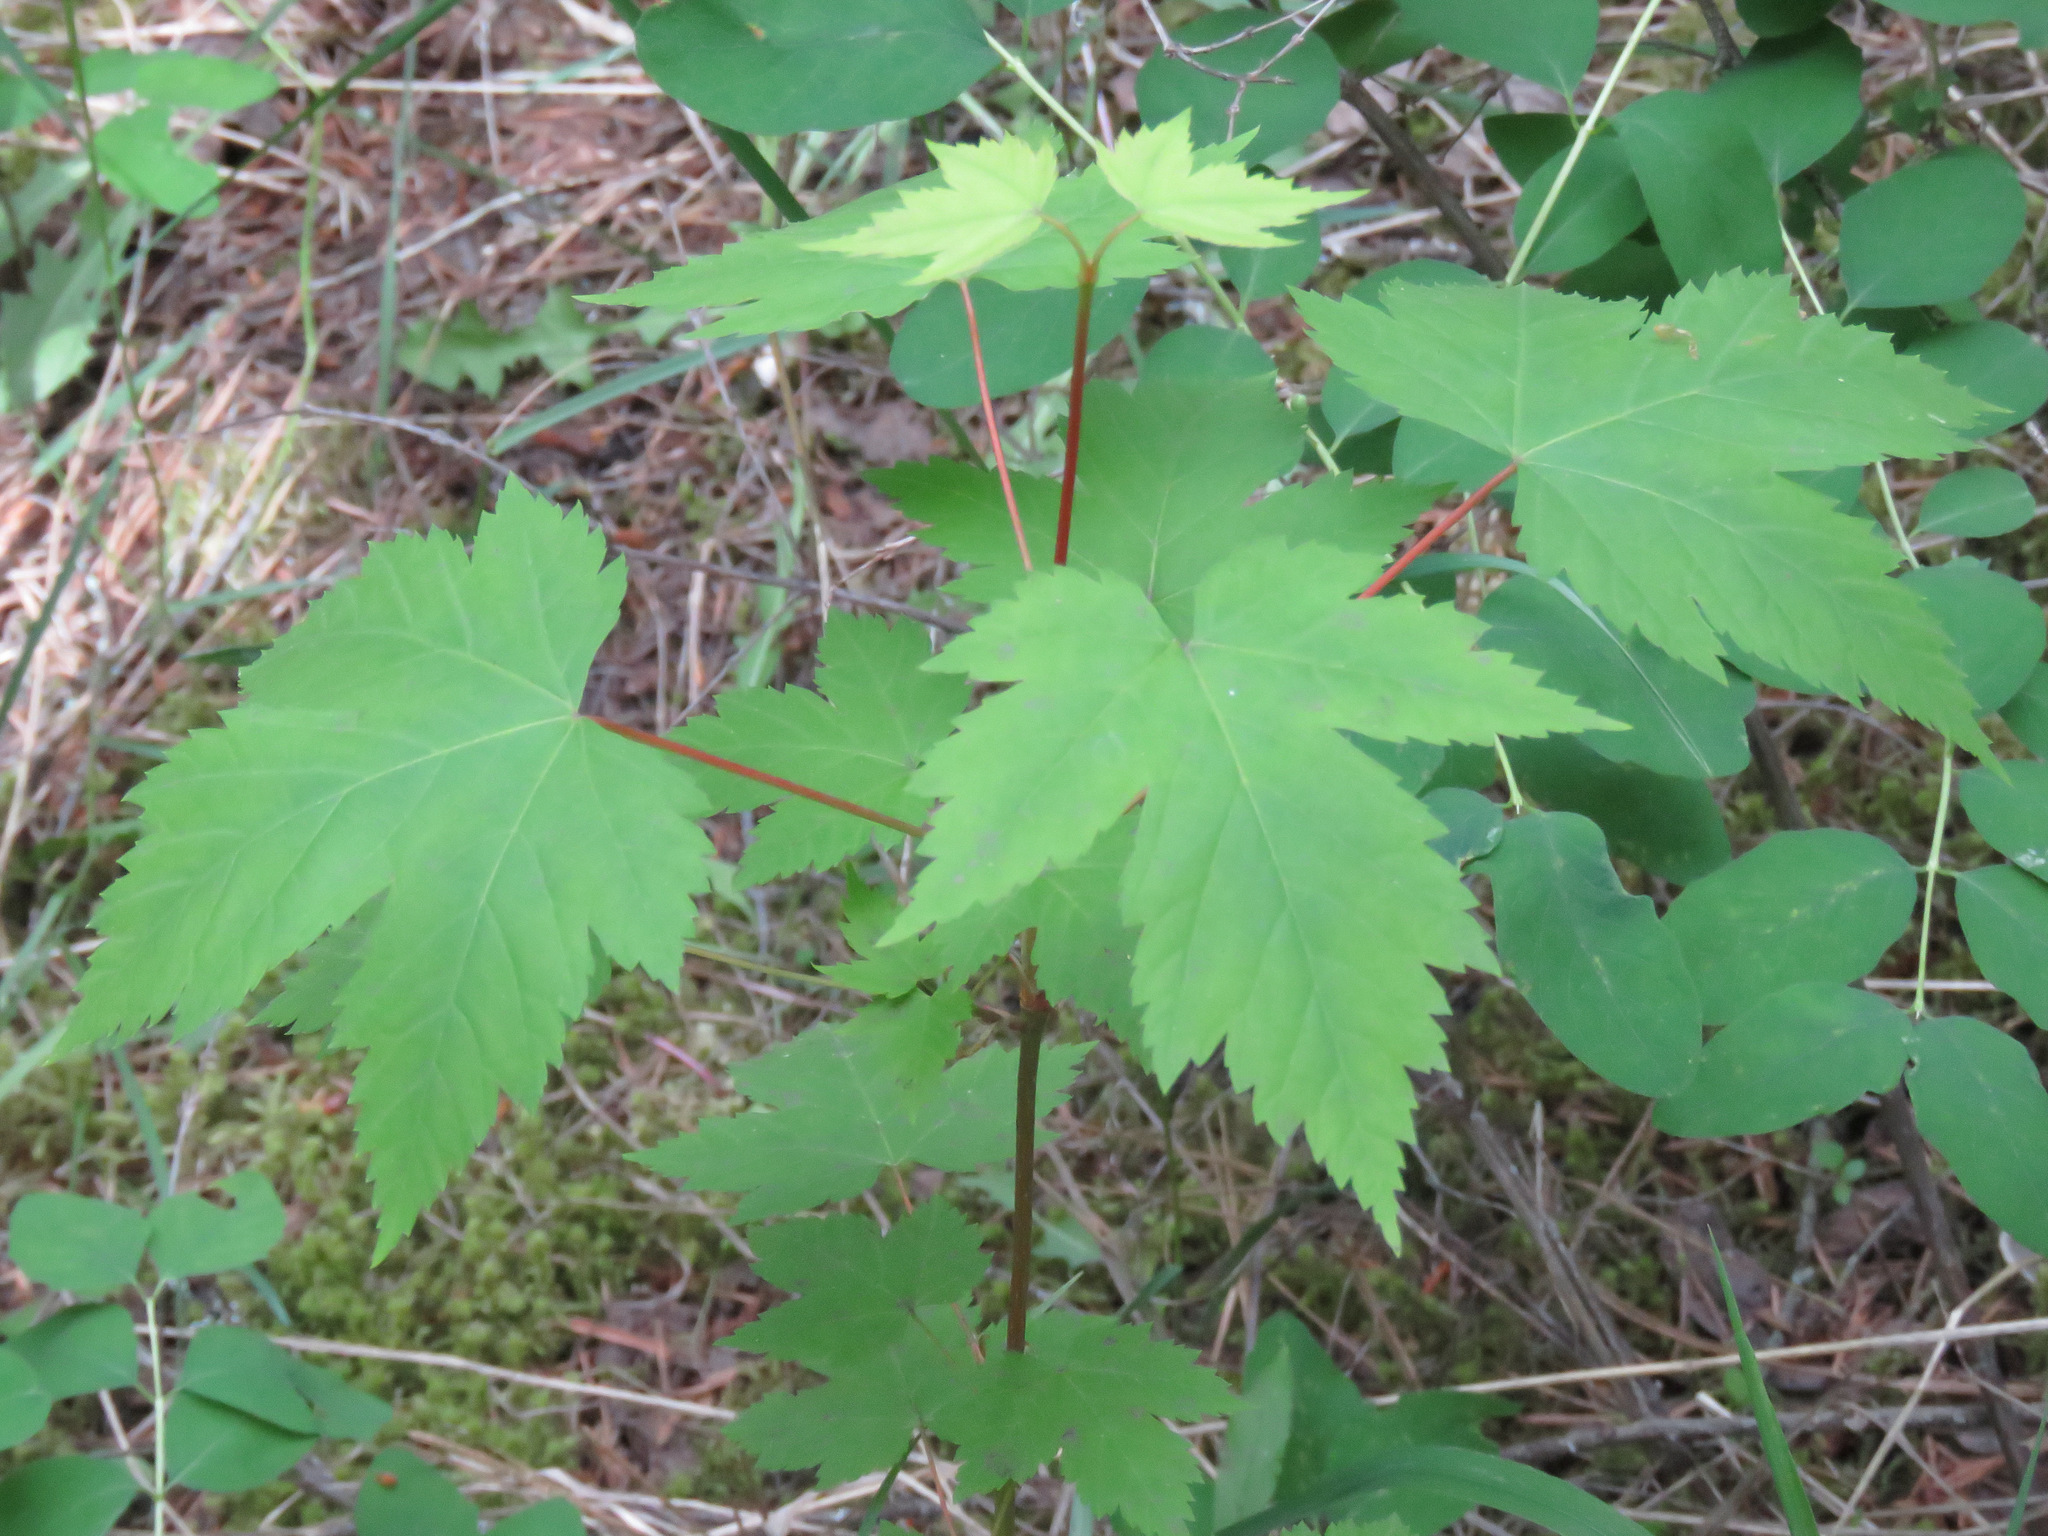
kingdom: Plantae
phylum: Tracheophyta
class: Magnoliopsida
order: Sapindales
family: Sapindaceae
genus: Acer
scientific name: Acer glabrum
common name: Rocky mountain maple
